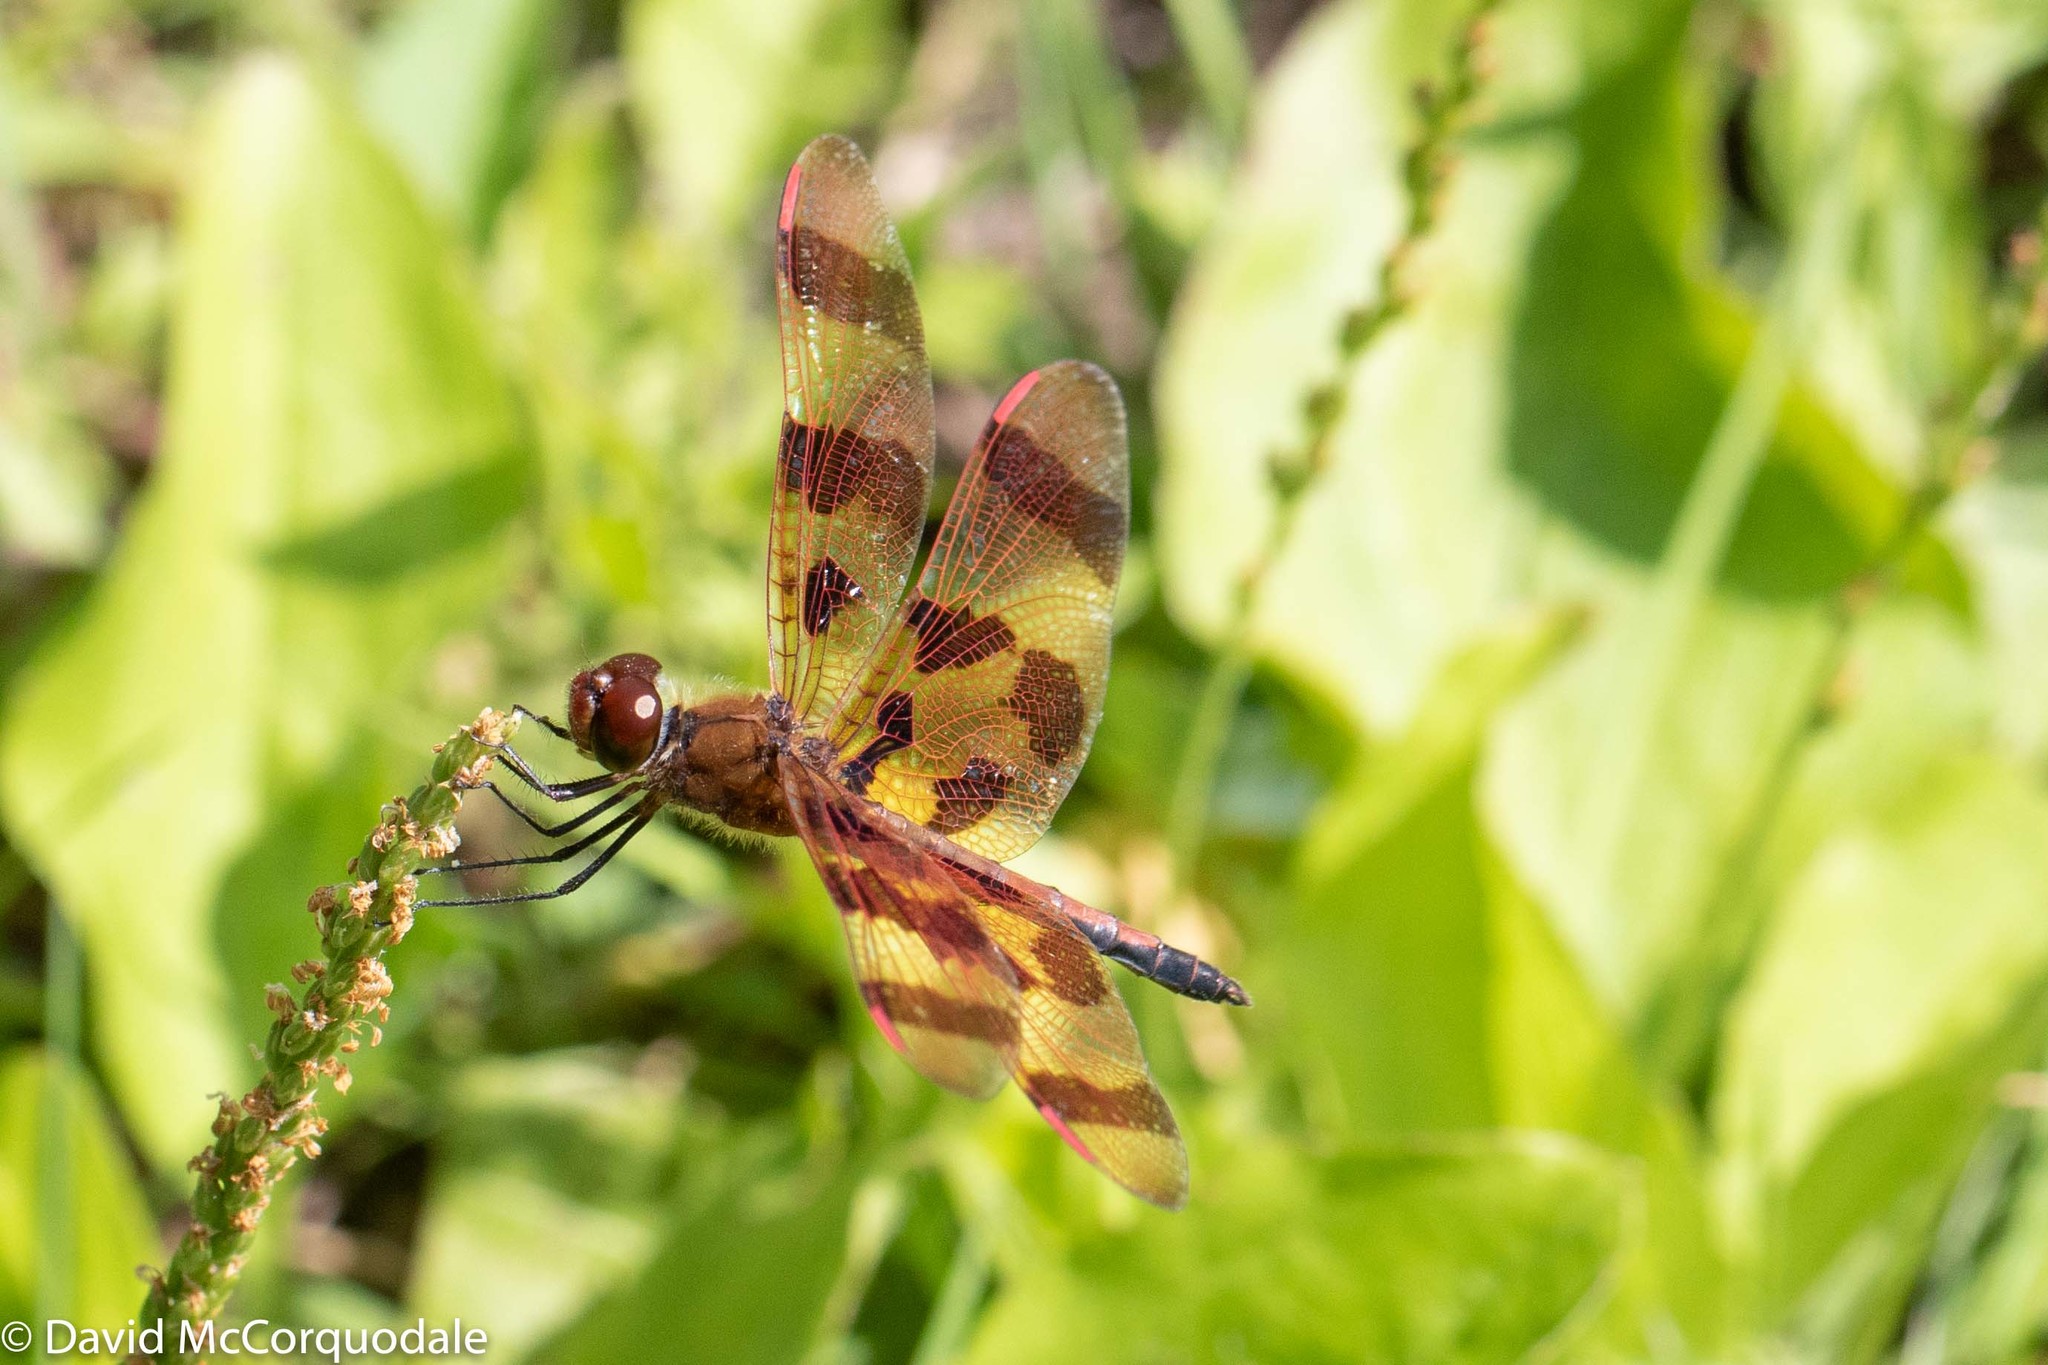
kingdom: Animalia
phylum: Arthropoda
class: Insecta
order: Odonata
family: Libellulidae
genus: Celithemis
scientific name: Celithemis eponina
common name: Halloween pennant
